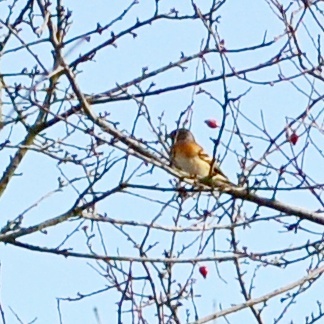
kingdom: Animalia
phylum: Chordata
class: Aves
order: Passeriformes
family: Fringillidae
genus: Fringilla
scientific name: Fringilla montifringilla
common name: Brambling
